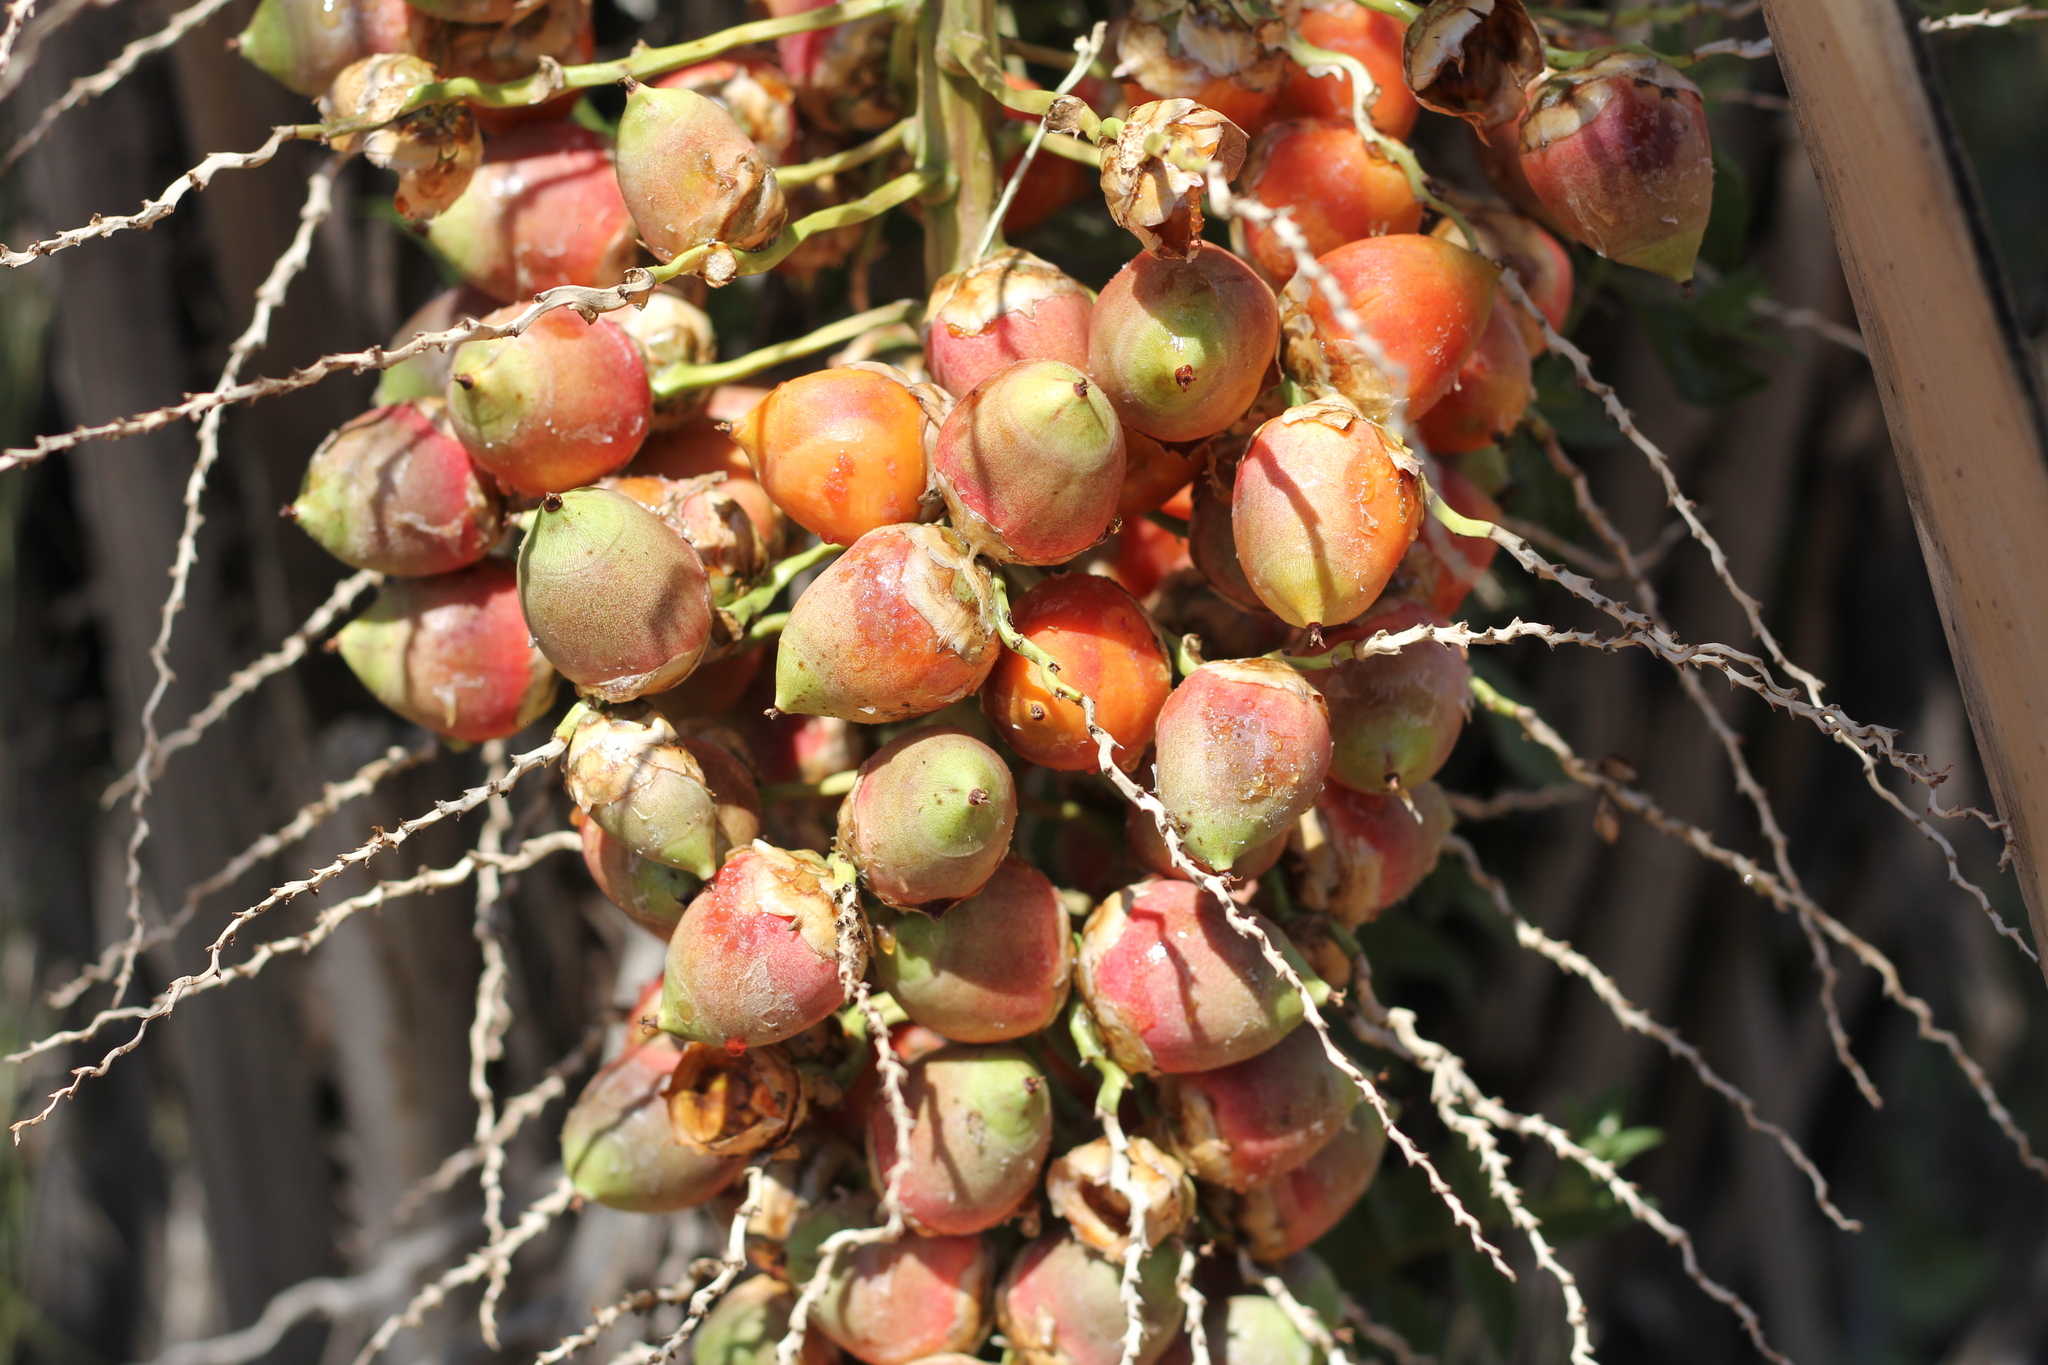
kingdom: Plantae
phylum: Tracheophyta
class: Liliopsida
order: Arecales
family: Arecaceae
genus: Butia
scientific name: Butia noblickii
